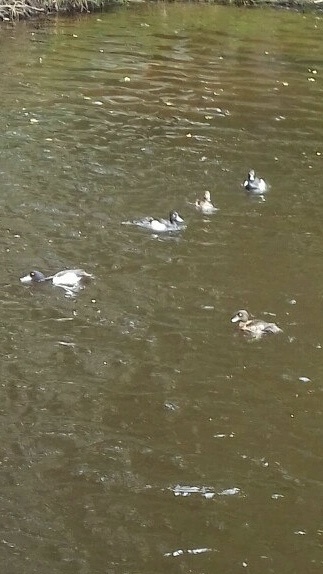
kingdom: Animalia
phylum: Chordata
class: Aves
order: Anseriformes
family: Anatidae
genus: Aythya
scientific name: Aythya fuligula
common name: Tufted duck
